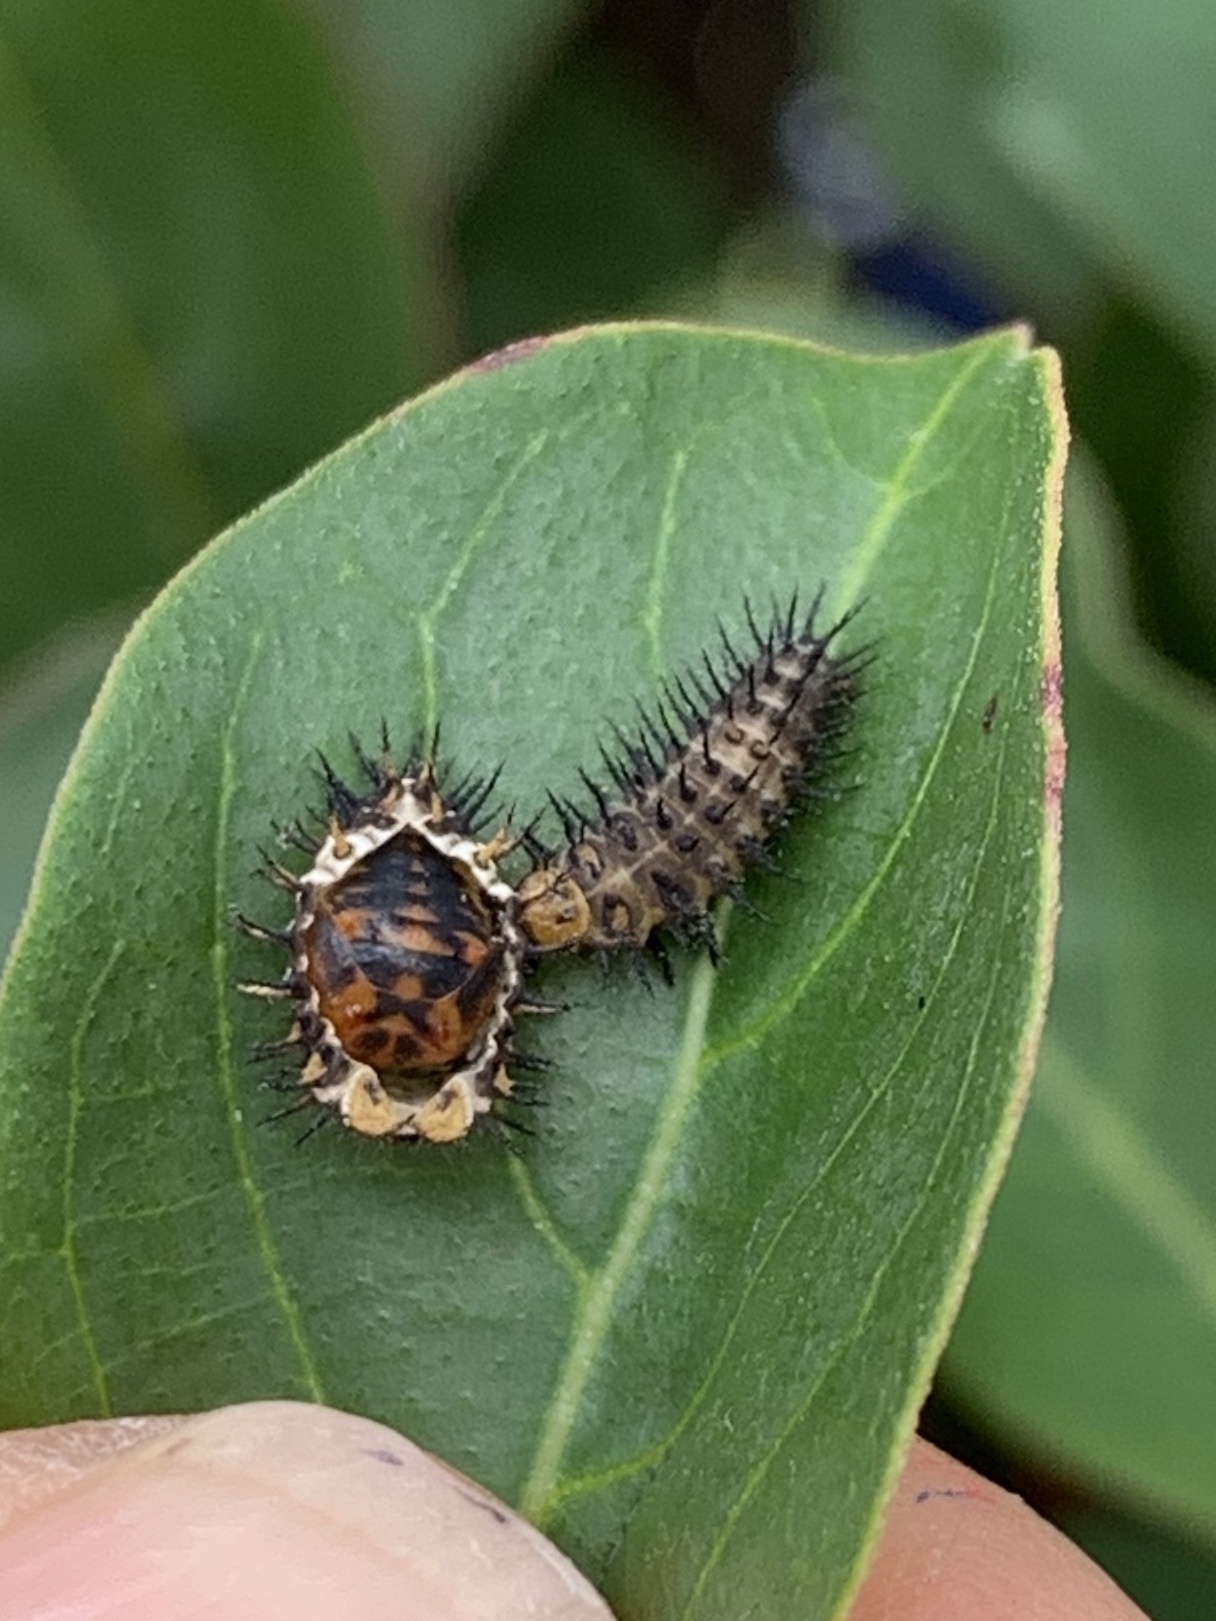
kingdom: Animalia
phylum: Arthropoda
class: Insecta
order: Coleoptera
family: Coccinellidae
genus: Curinus
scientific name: Curinus coeruleus
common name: Ladybird beetle
